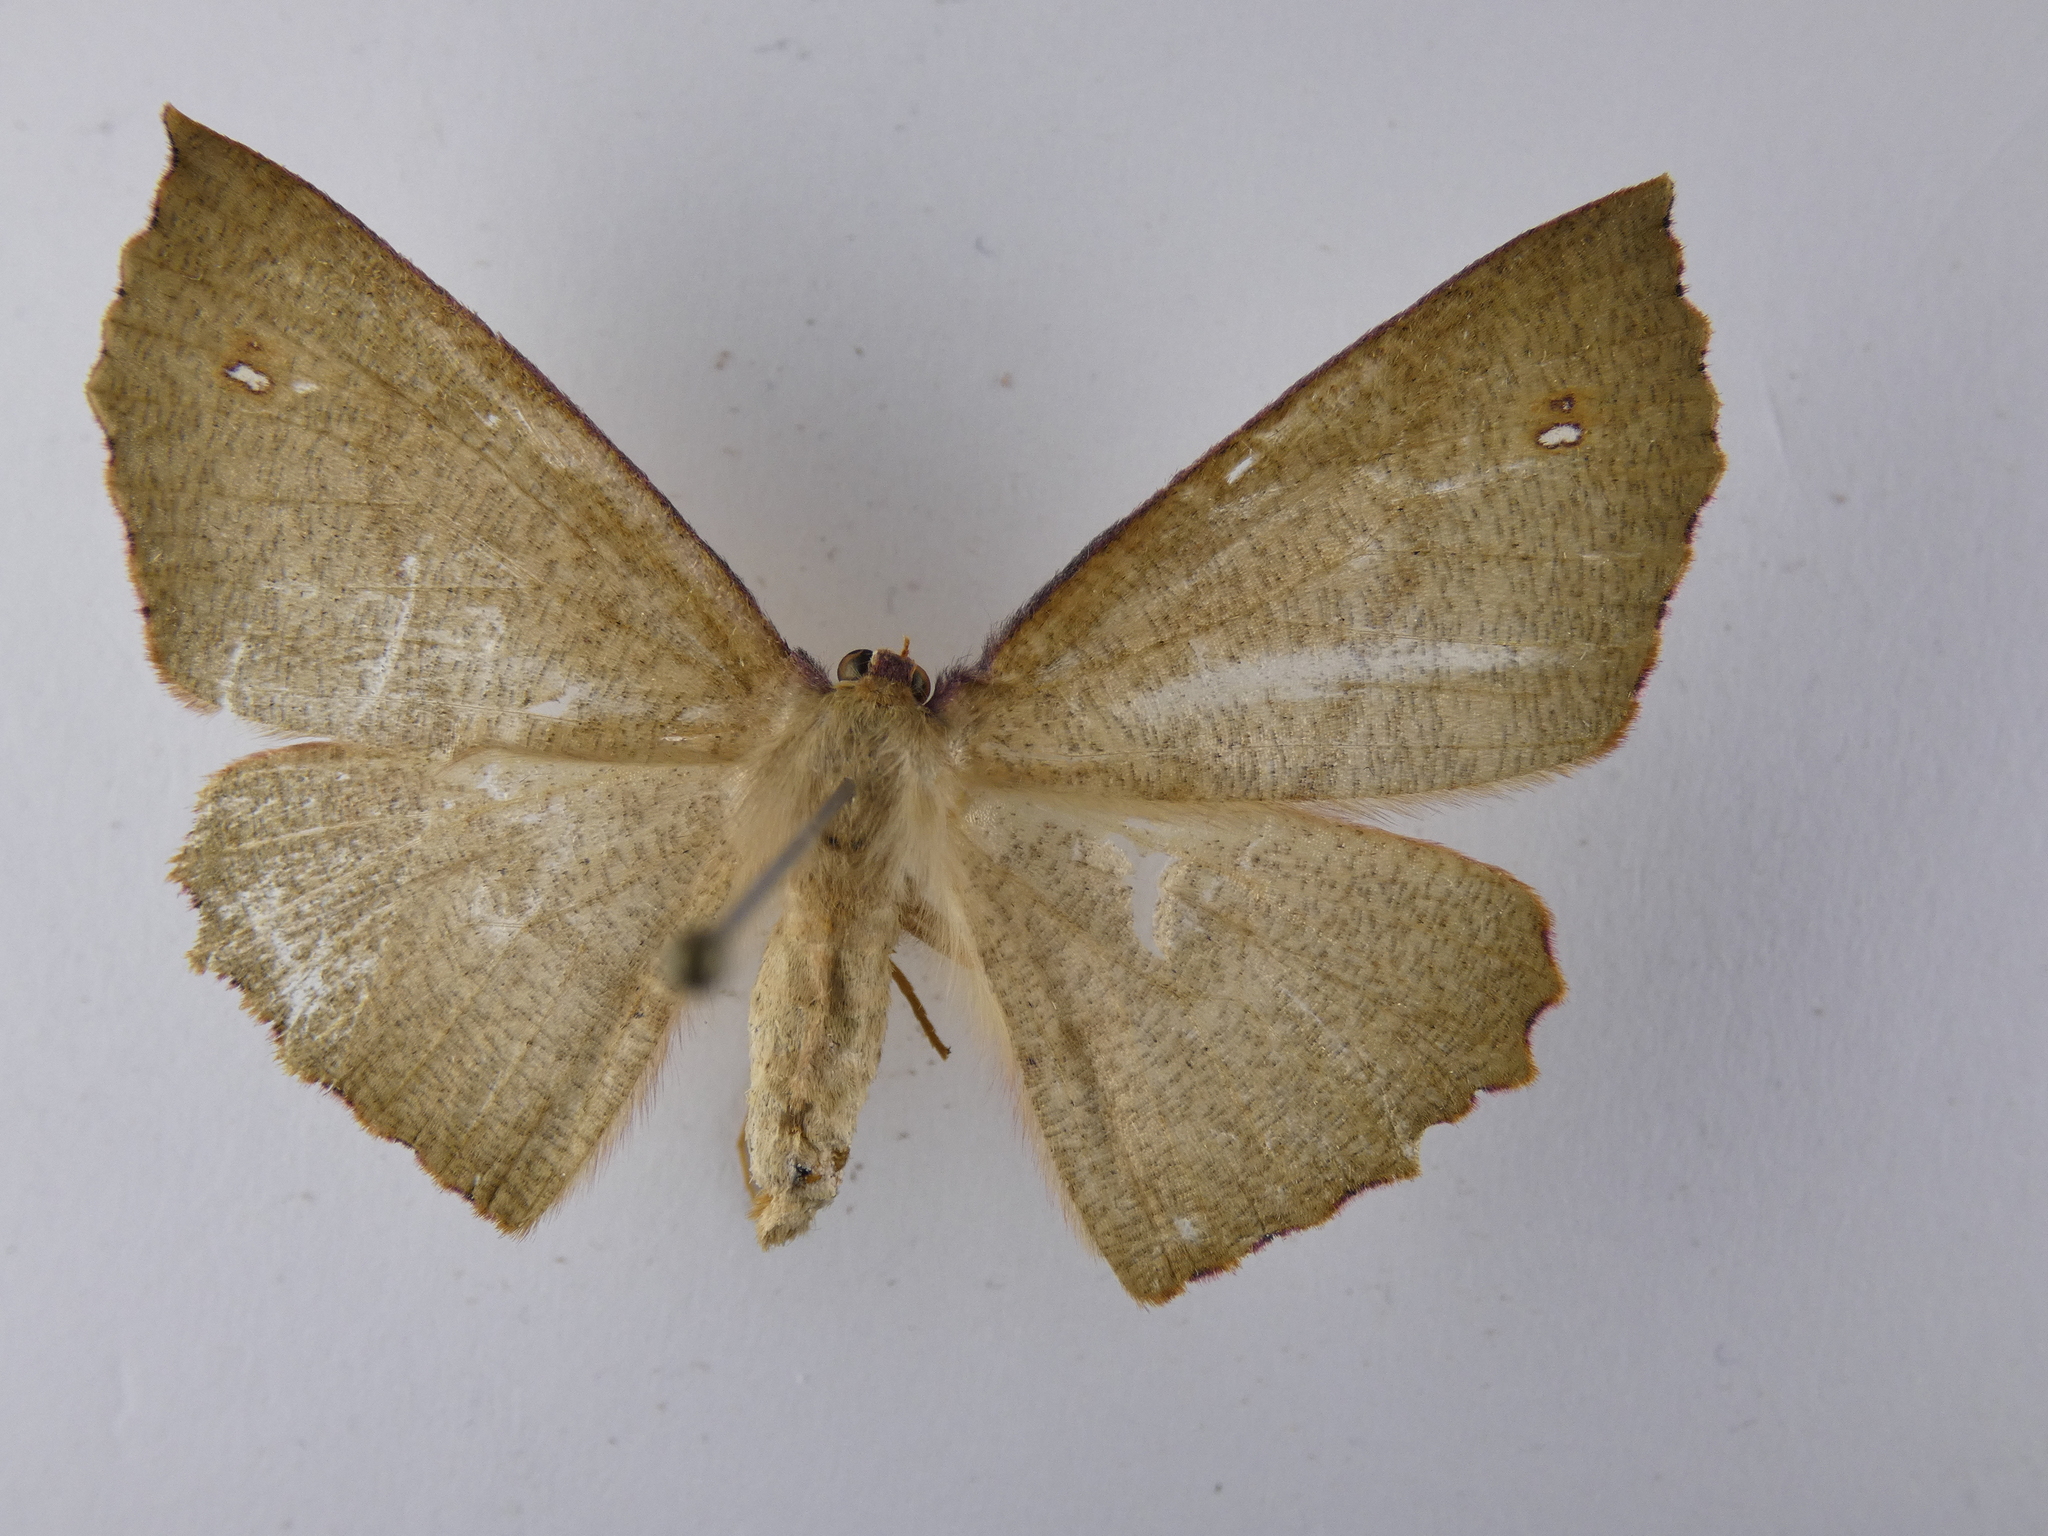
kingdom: Animalia
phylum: Arthropoda
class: Insecta
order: Lepidoptera
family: Geometridae
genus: Xyridacma
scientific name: Xyridacma ustaria
